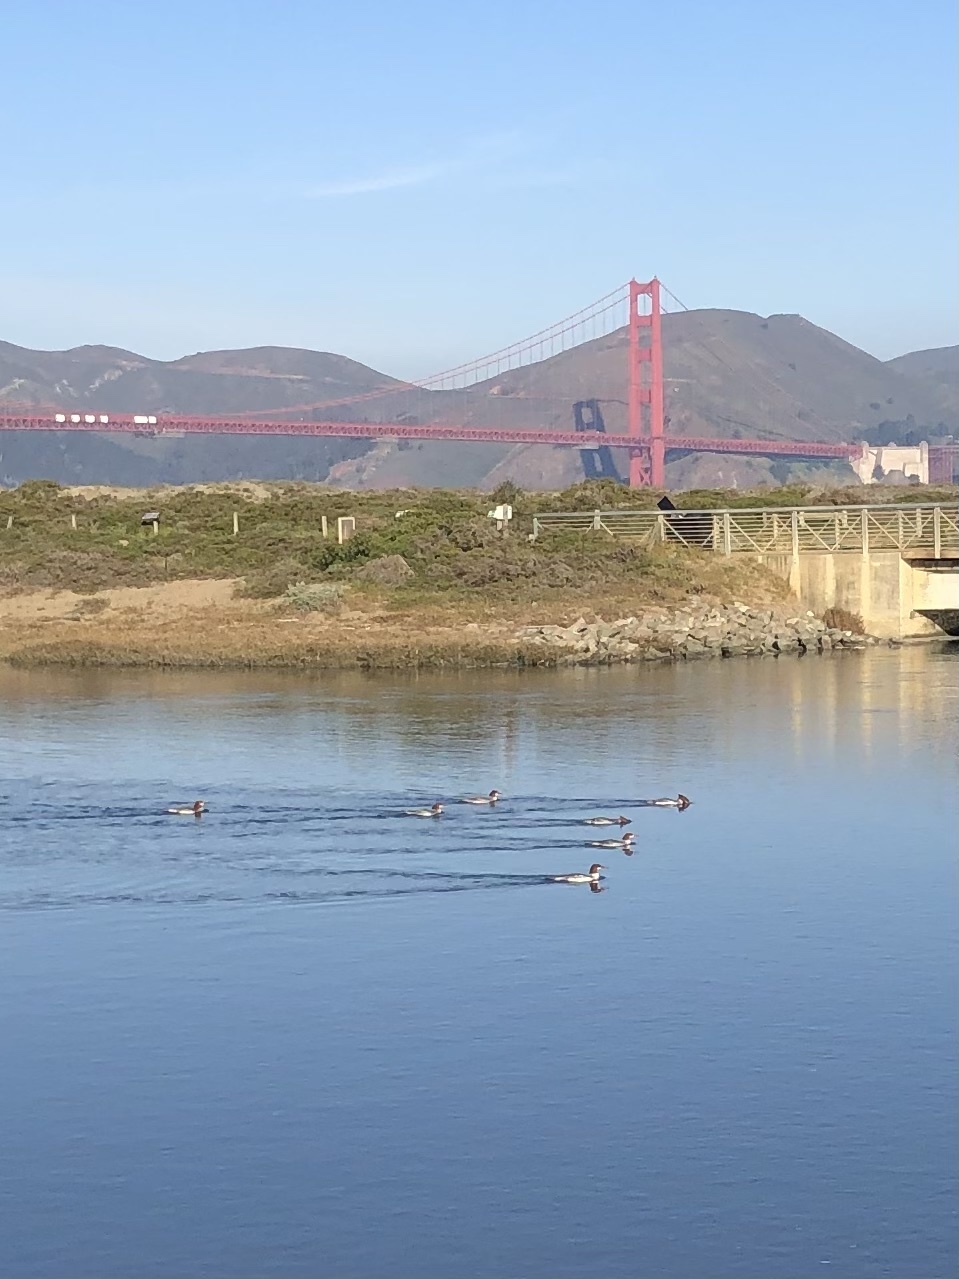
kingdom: Animalia
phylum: Chordata
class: Aves
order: Anseriformes
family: Anatidae
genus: Mergus
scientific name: Mergus merganser
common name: Common merganser
